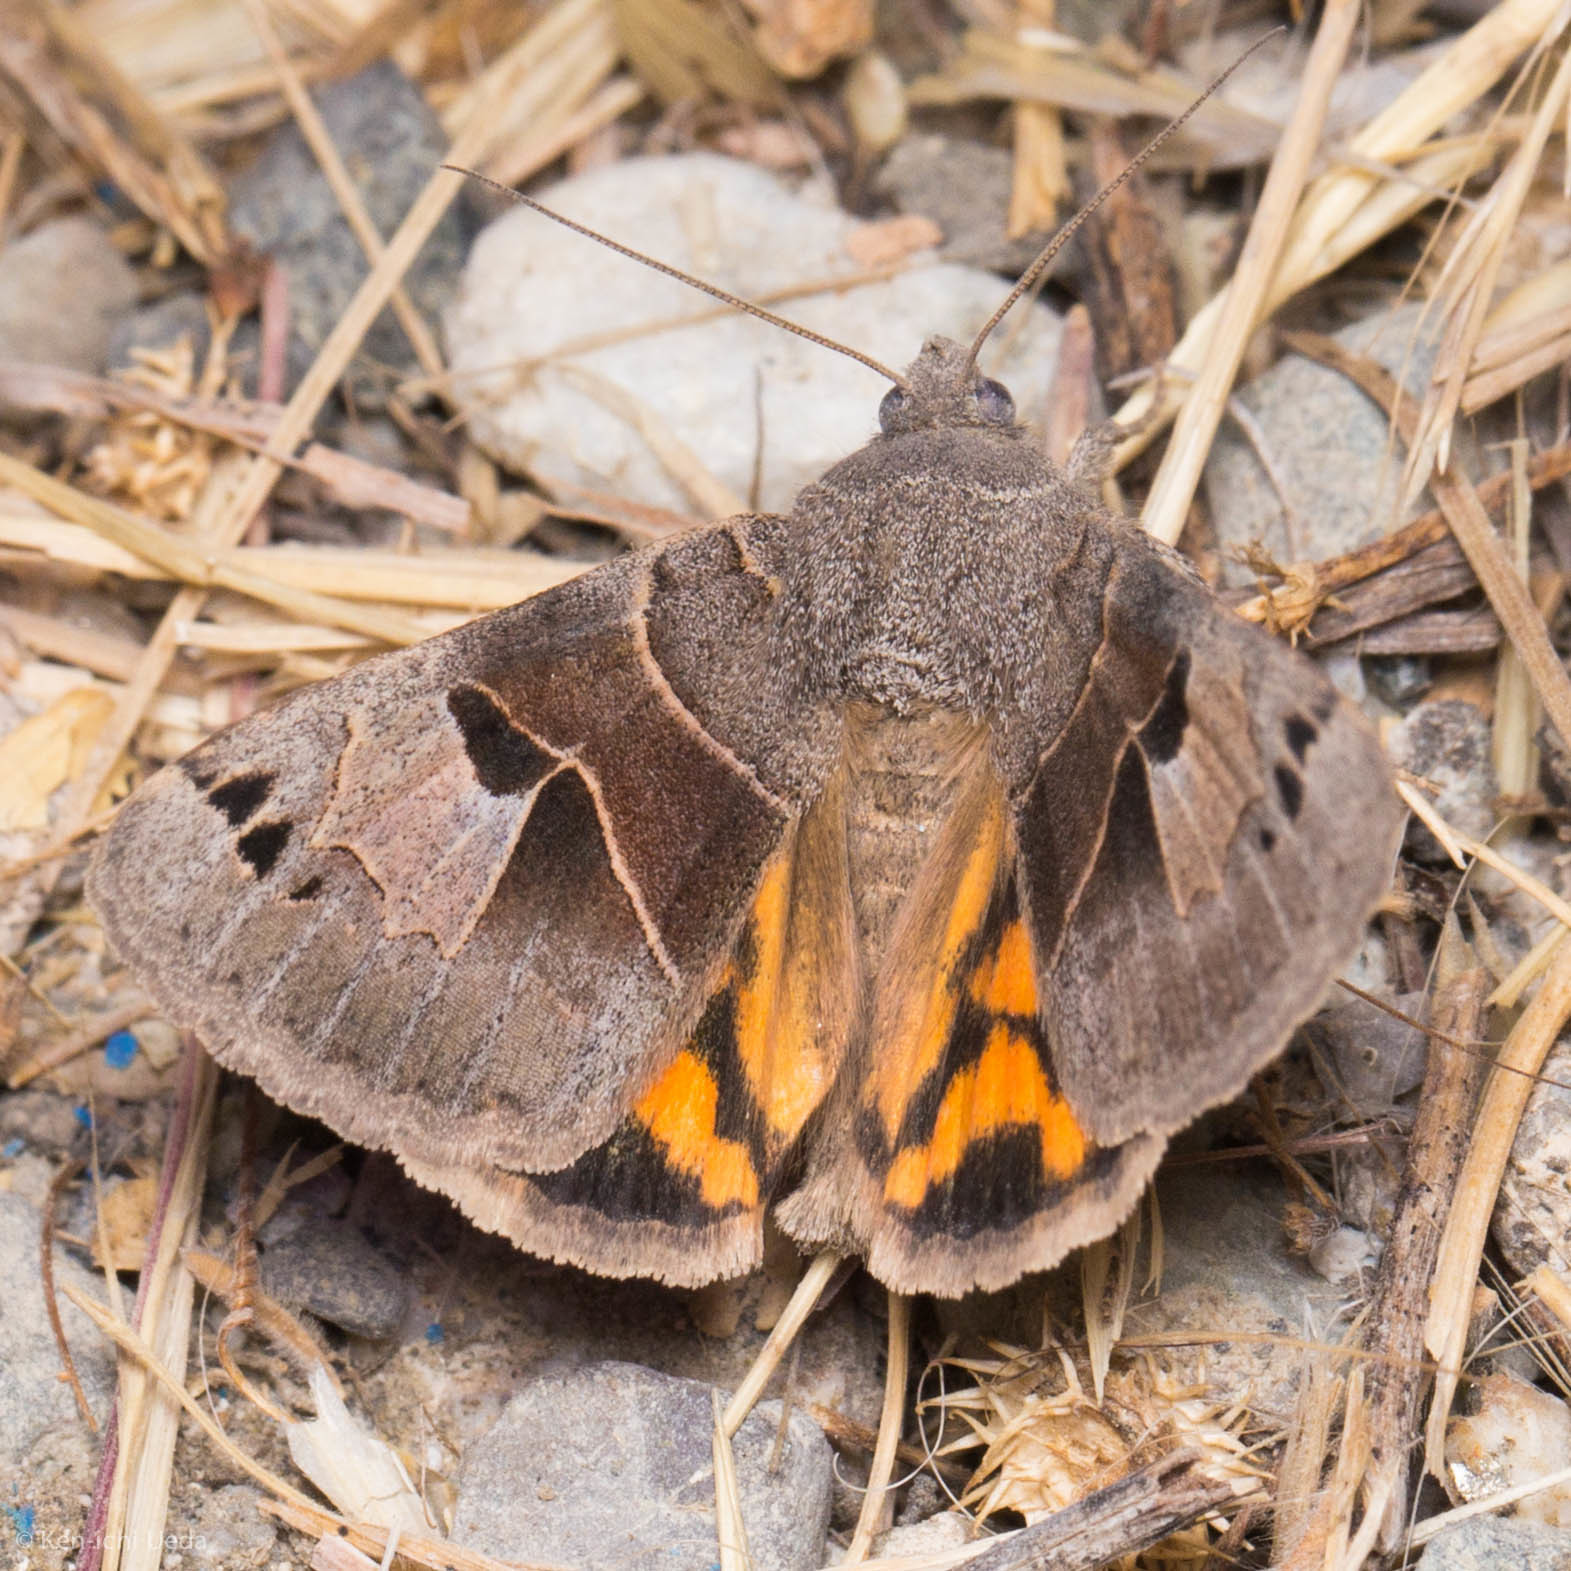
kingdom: Animalia
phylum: Arthropoda
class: Insecta
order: Lepidoptera
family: Erebidae
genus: Drasteria
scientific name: Drasteria edwardsii
